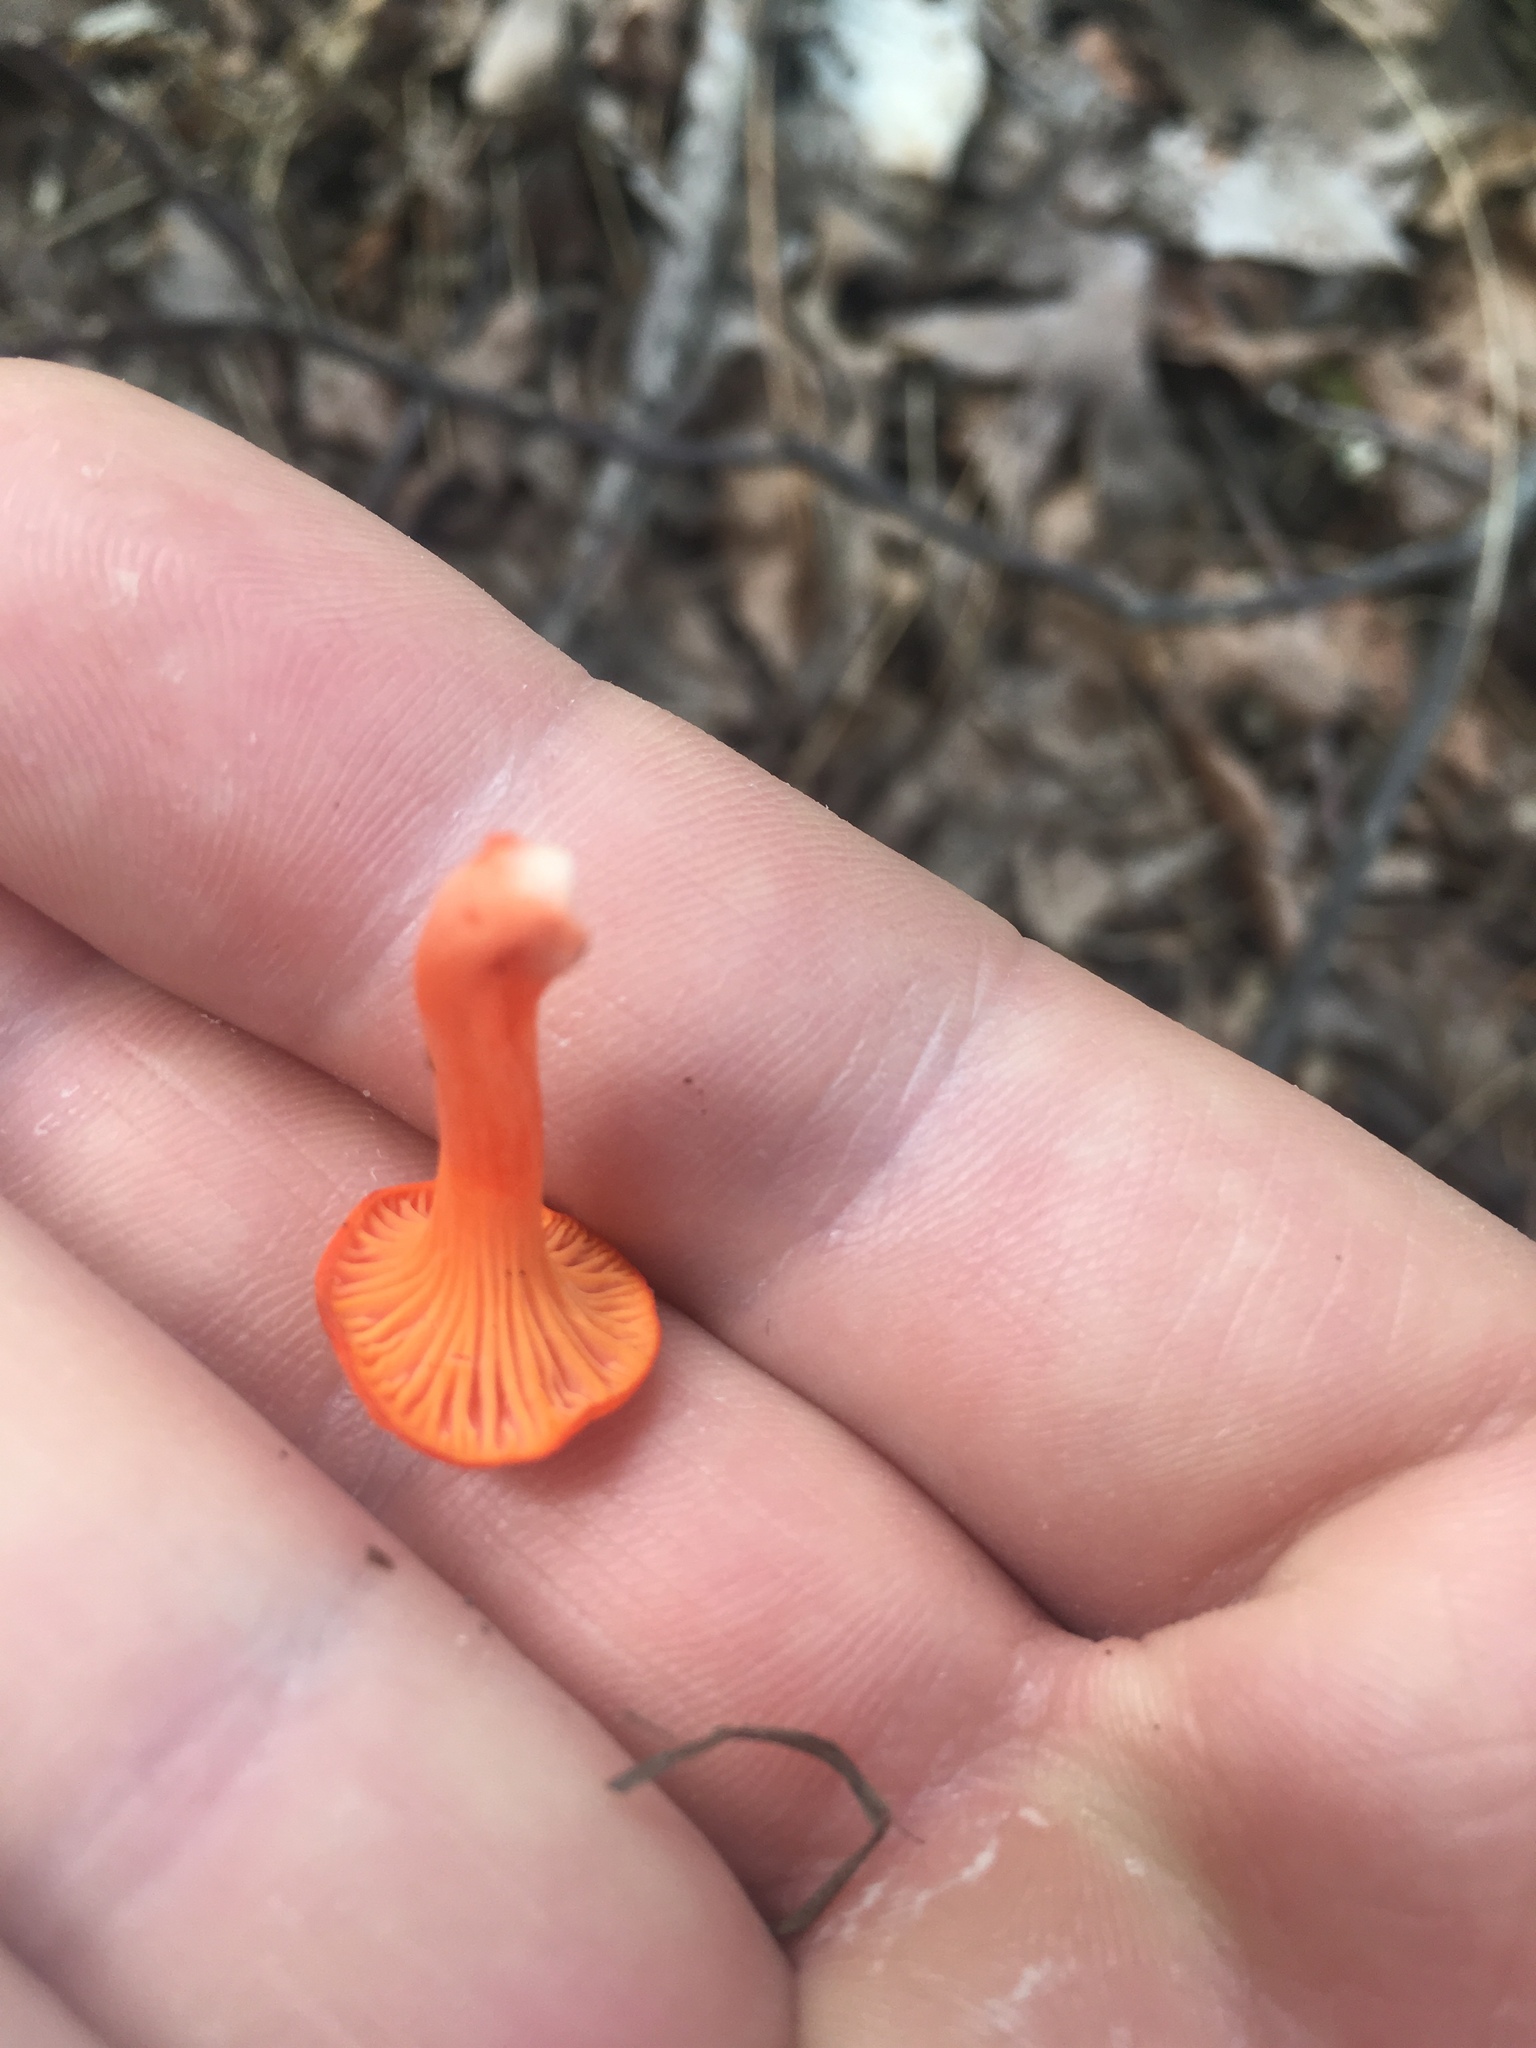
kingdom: Fungi
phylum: Basidiomycota
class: Agaricomycetes
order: Cantharellales
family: Hydnaceae
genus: Cantharellus
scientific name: Cantharellus cinnabarinus
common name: Cinnabar chanterelle
